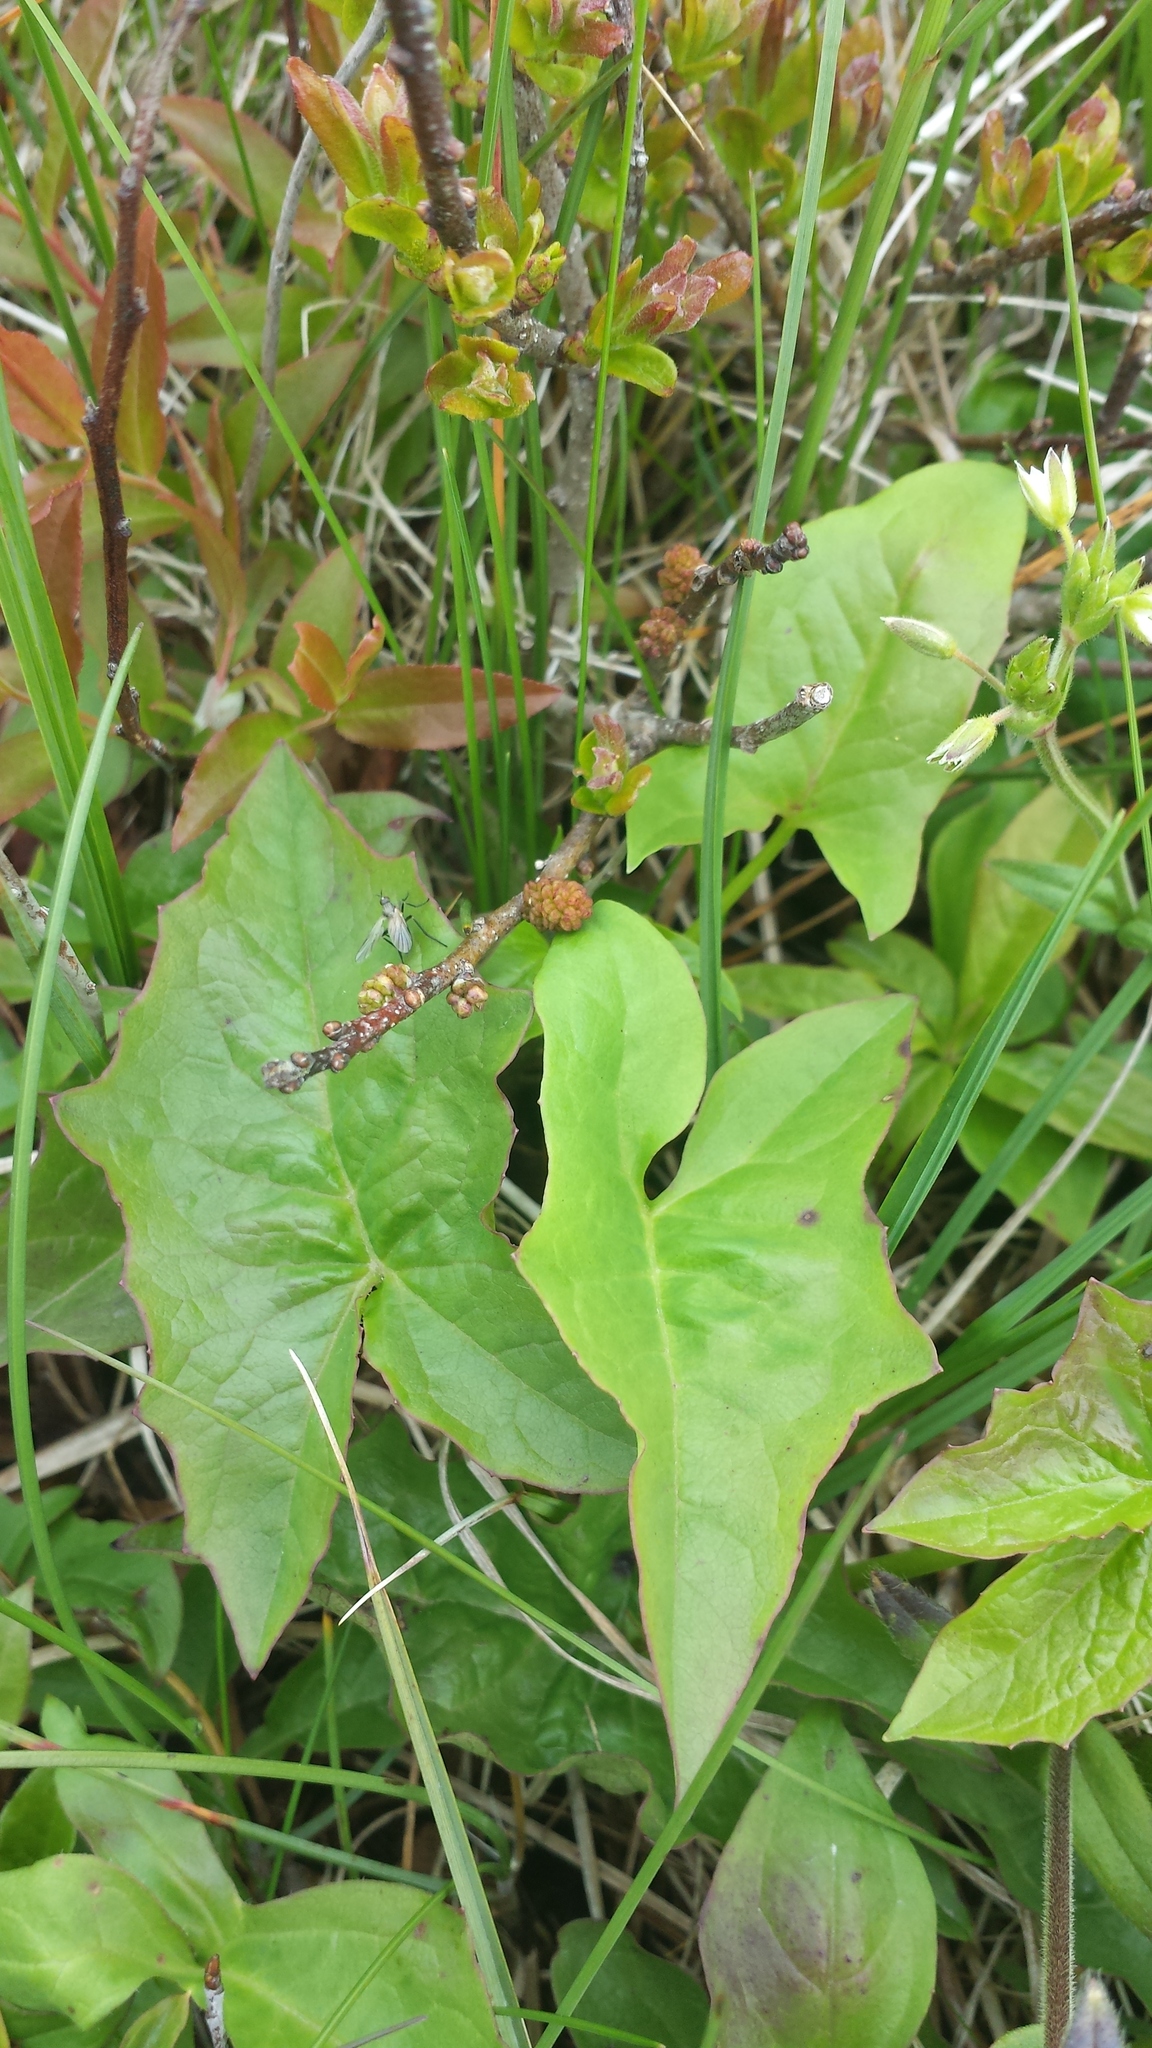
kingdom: Plantae
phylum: Tracheophyta
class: Magnoliopsida
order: Asterales
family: Asteraceae
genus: Nabalus
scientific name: Nabalus trifoliolatus
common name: Gall-of-the-earth
